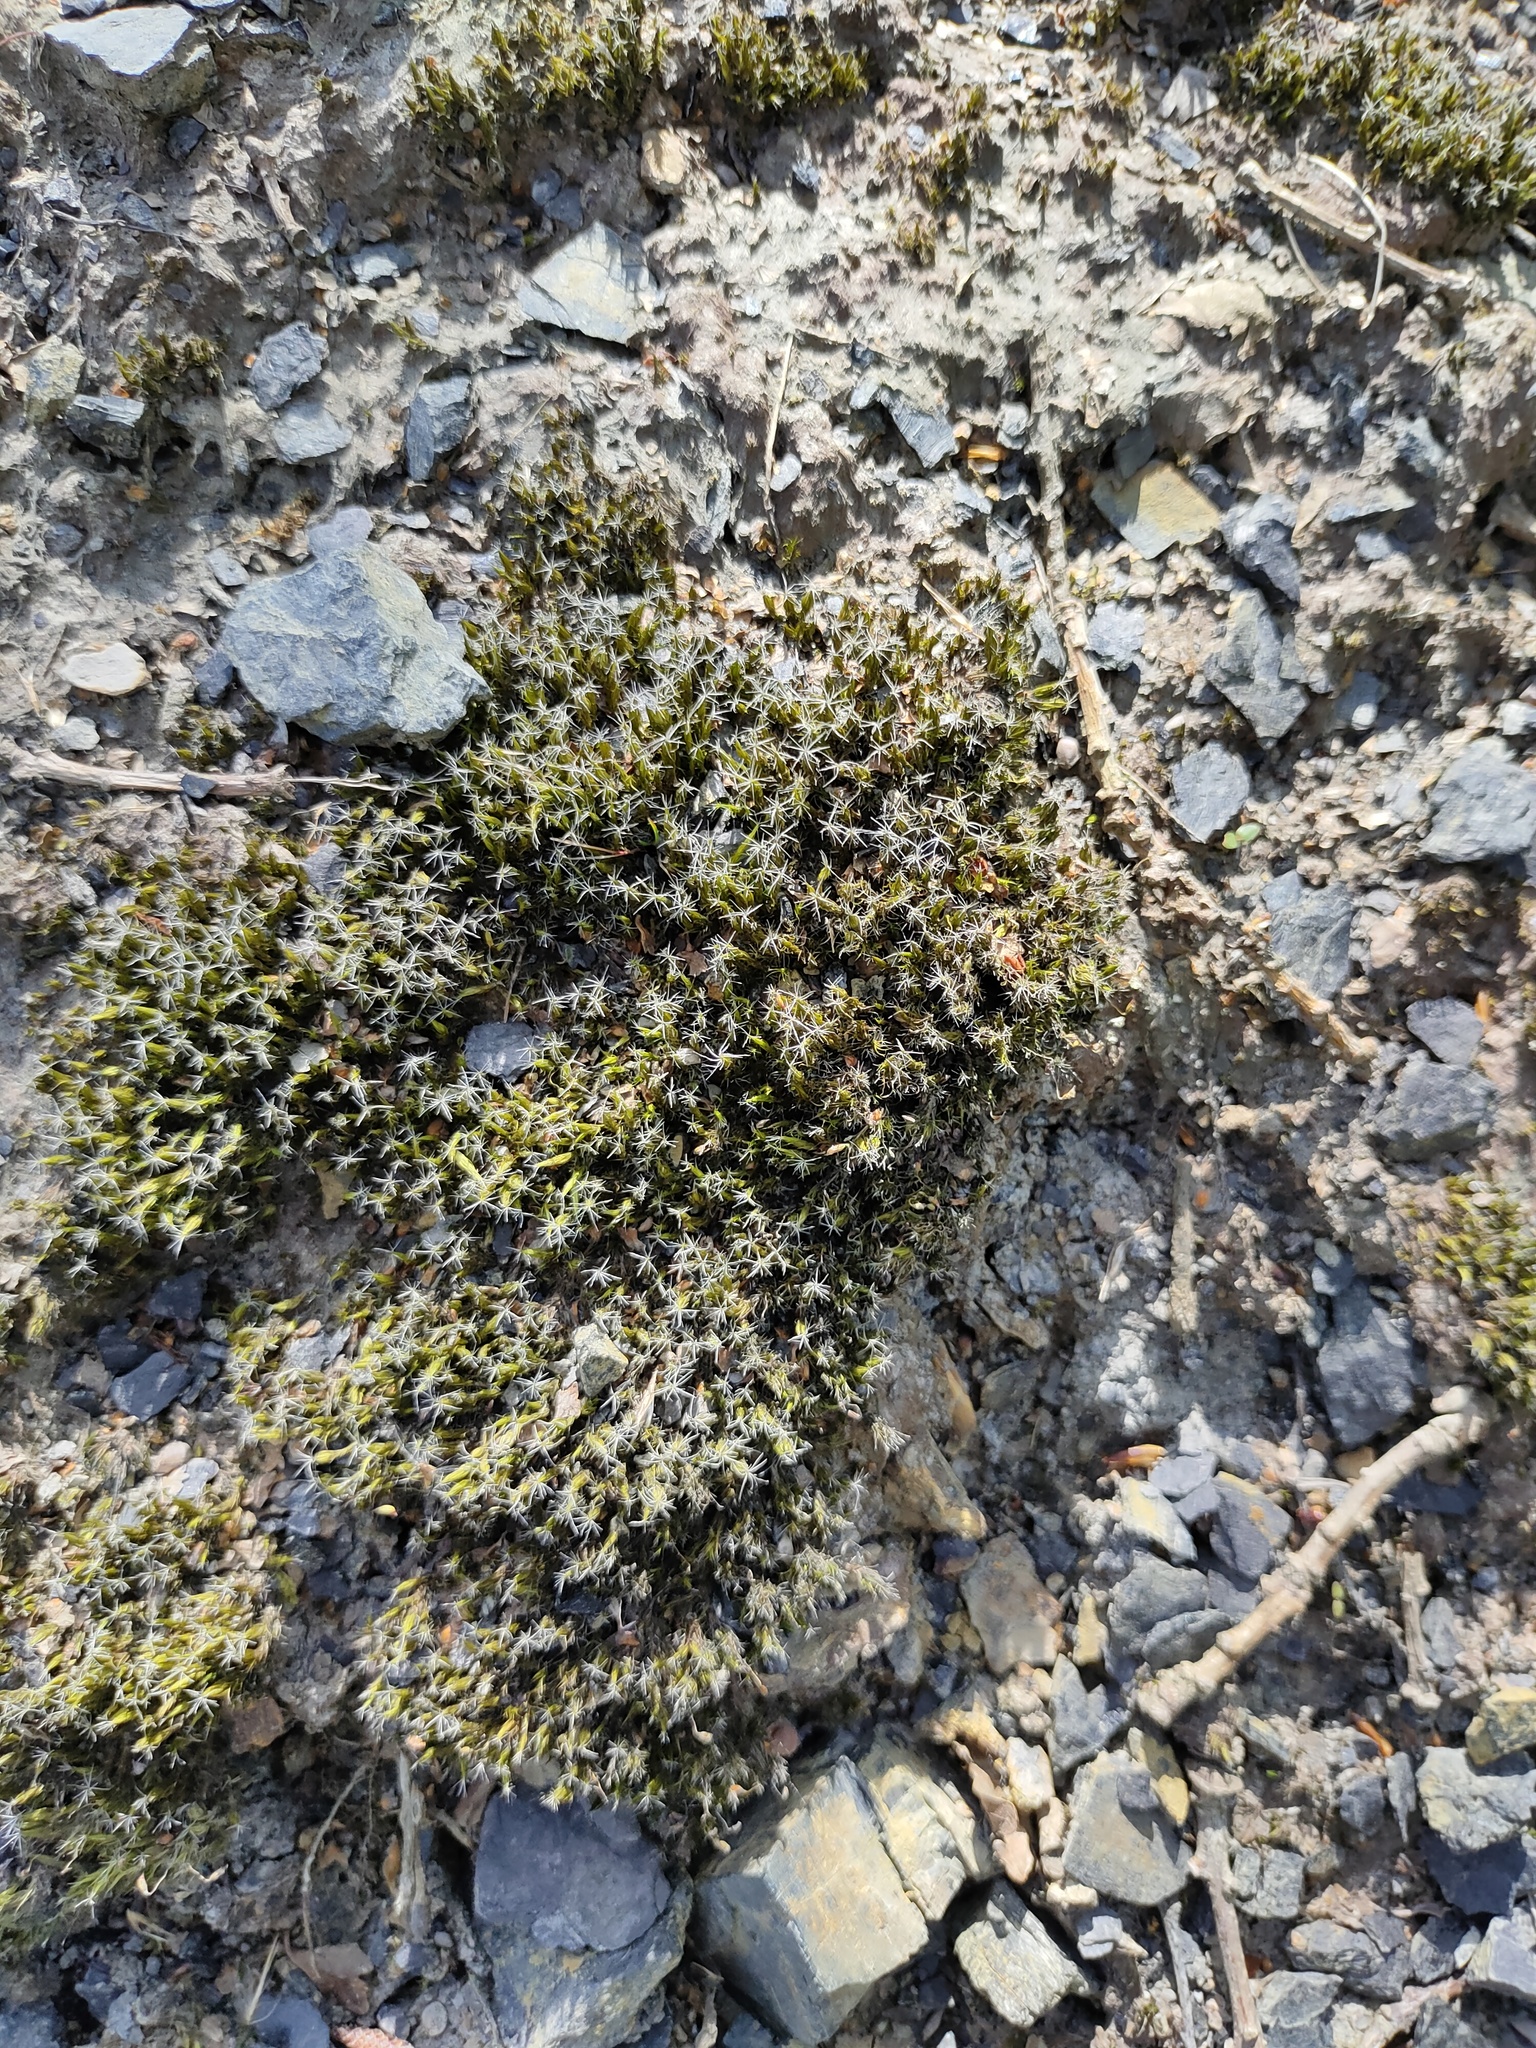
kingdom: Plantae
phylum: Bryophyta
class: Bryopsida
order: Dicranales
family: Leucobryaceae
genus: Campylopus
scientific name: Campylopus introflexus
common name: Heath star moss
